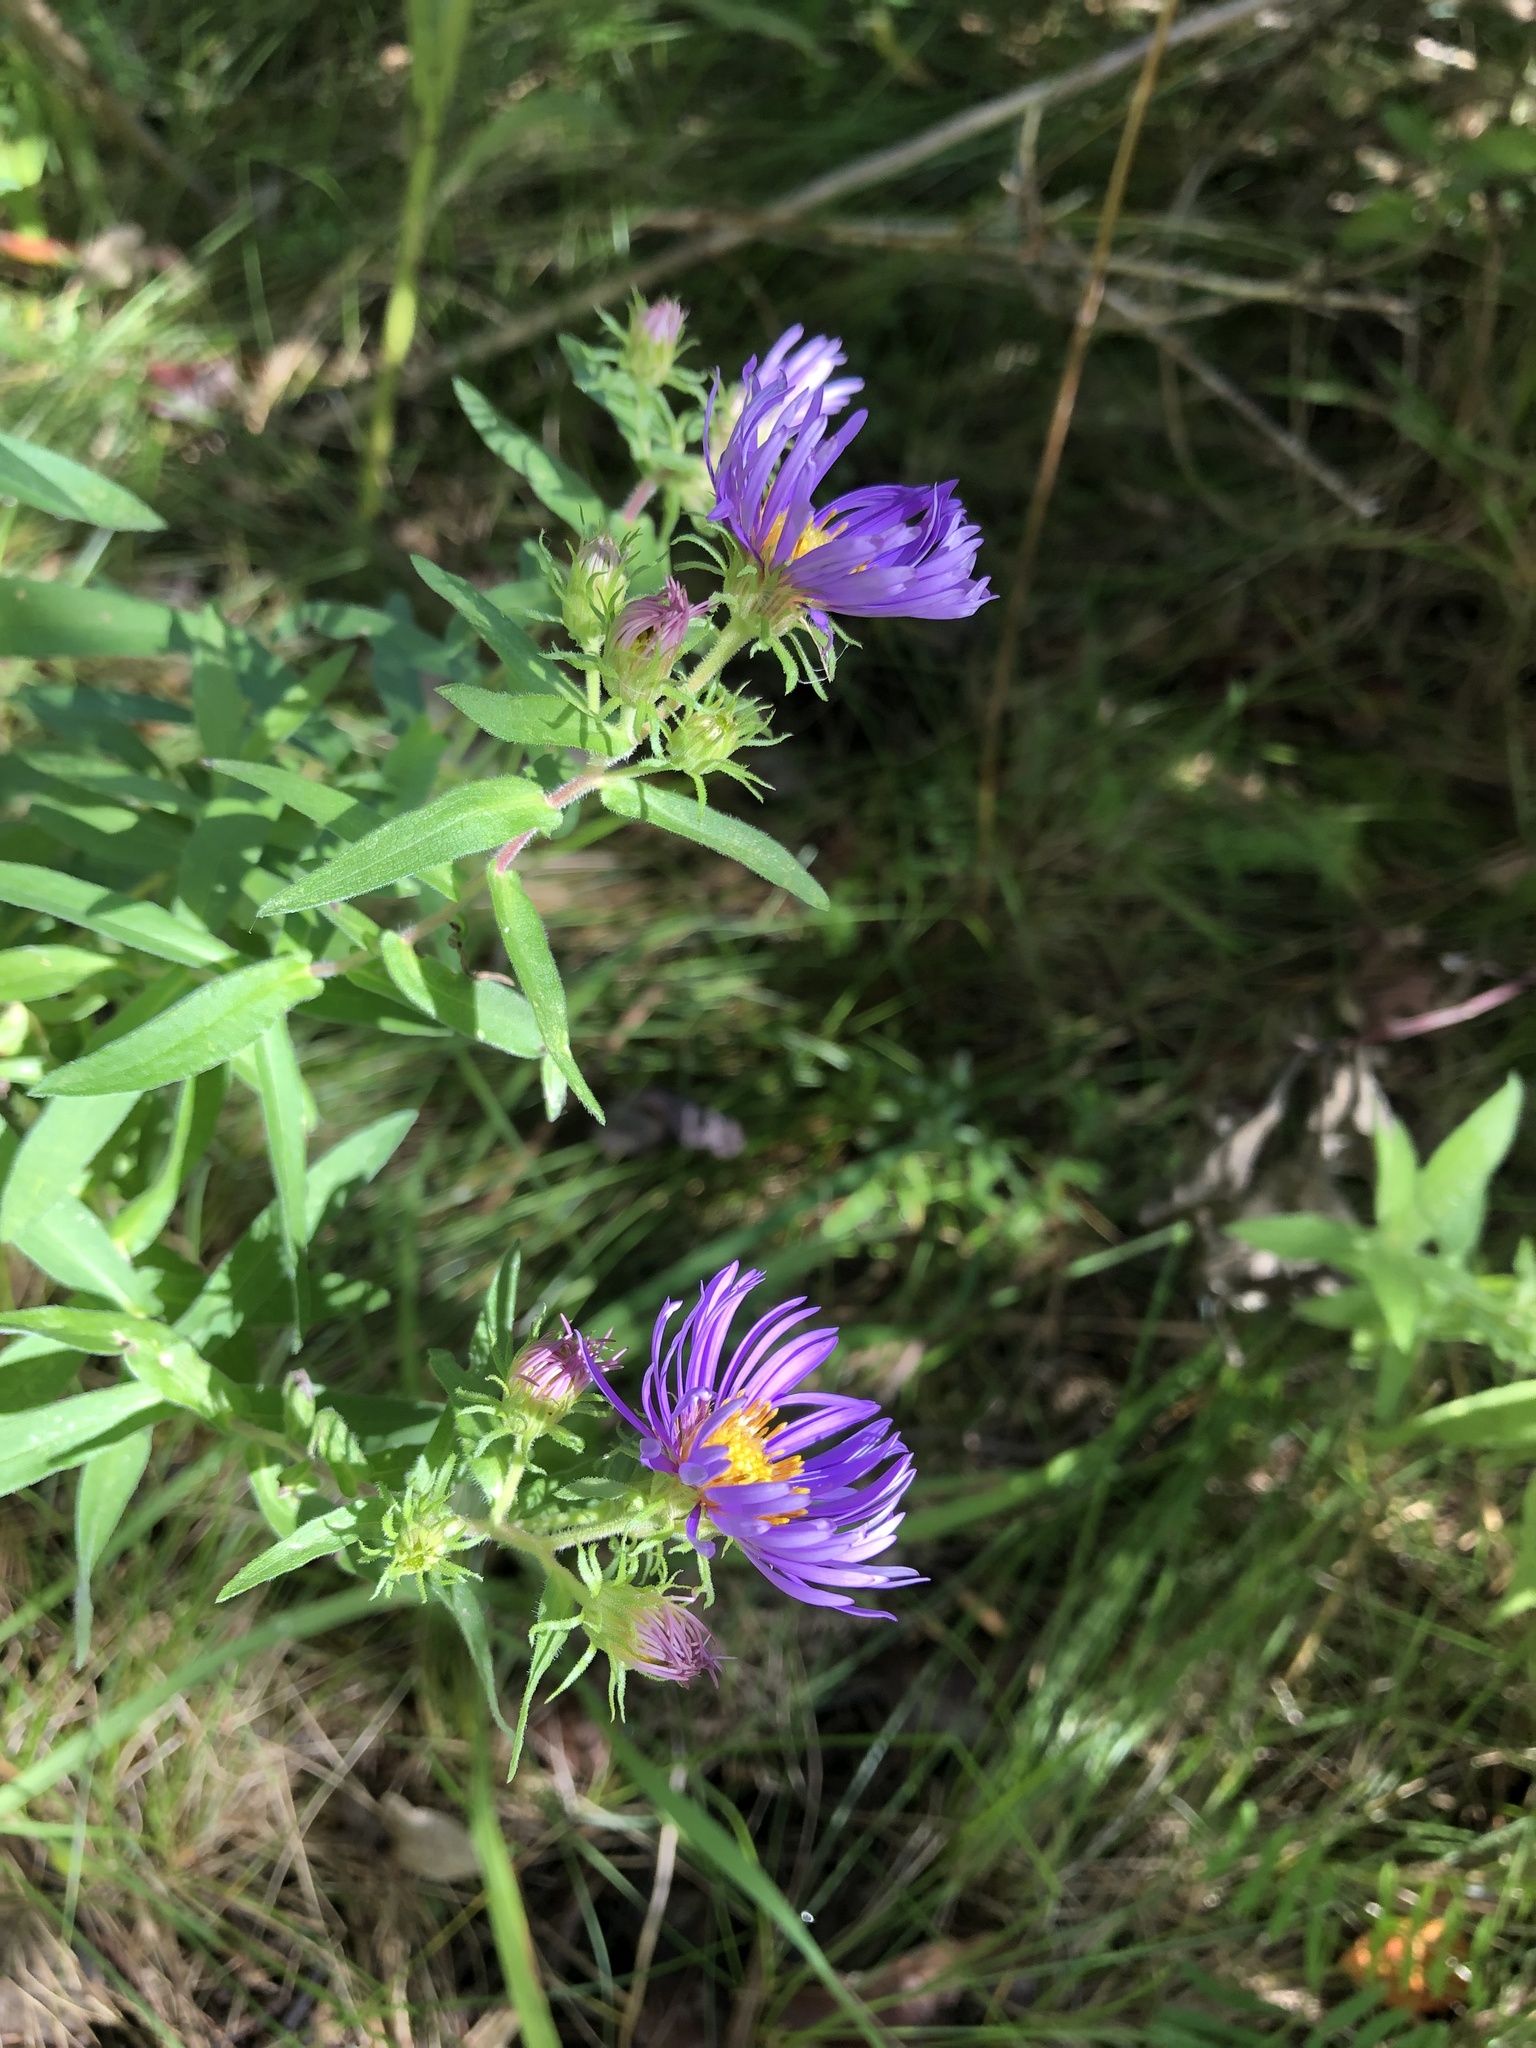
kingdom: Plantae
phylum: Tracheophyta
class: Magnoliopsida
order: Asterales
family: Asteraceae
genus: Symphyotrichum
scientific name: Symphyotrichum novae-angliae
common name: Michaelmas daisy
